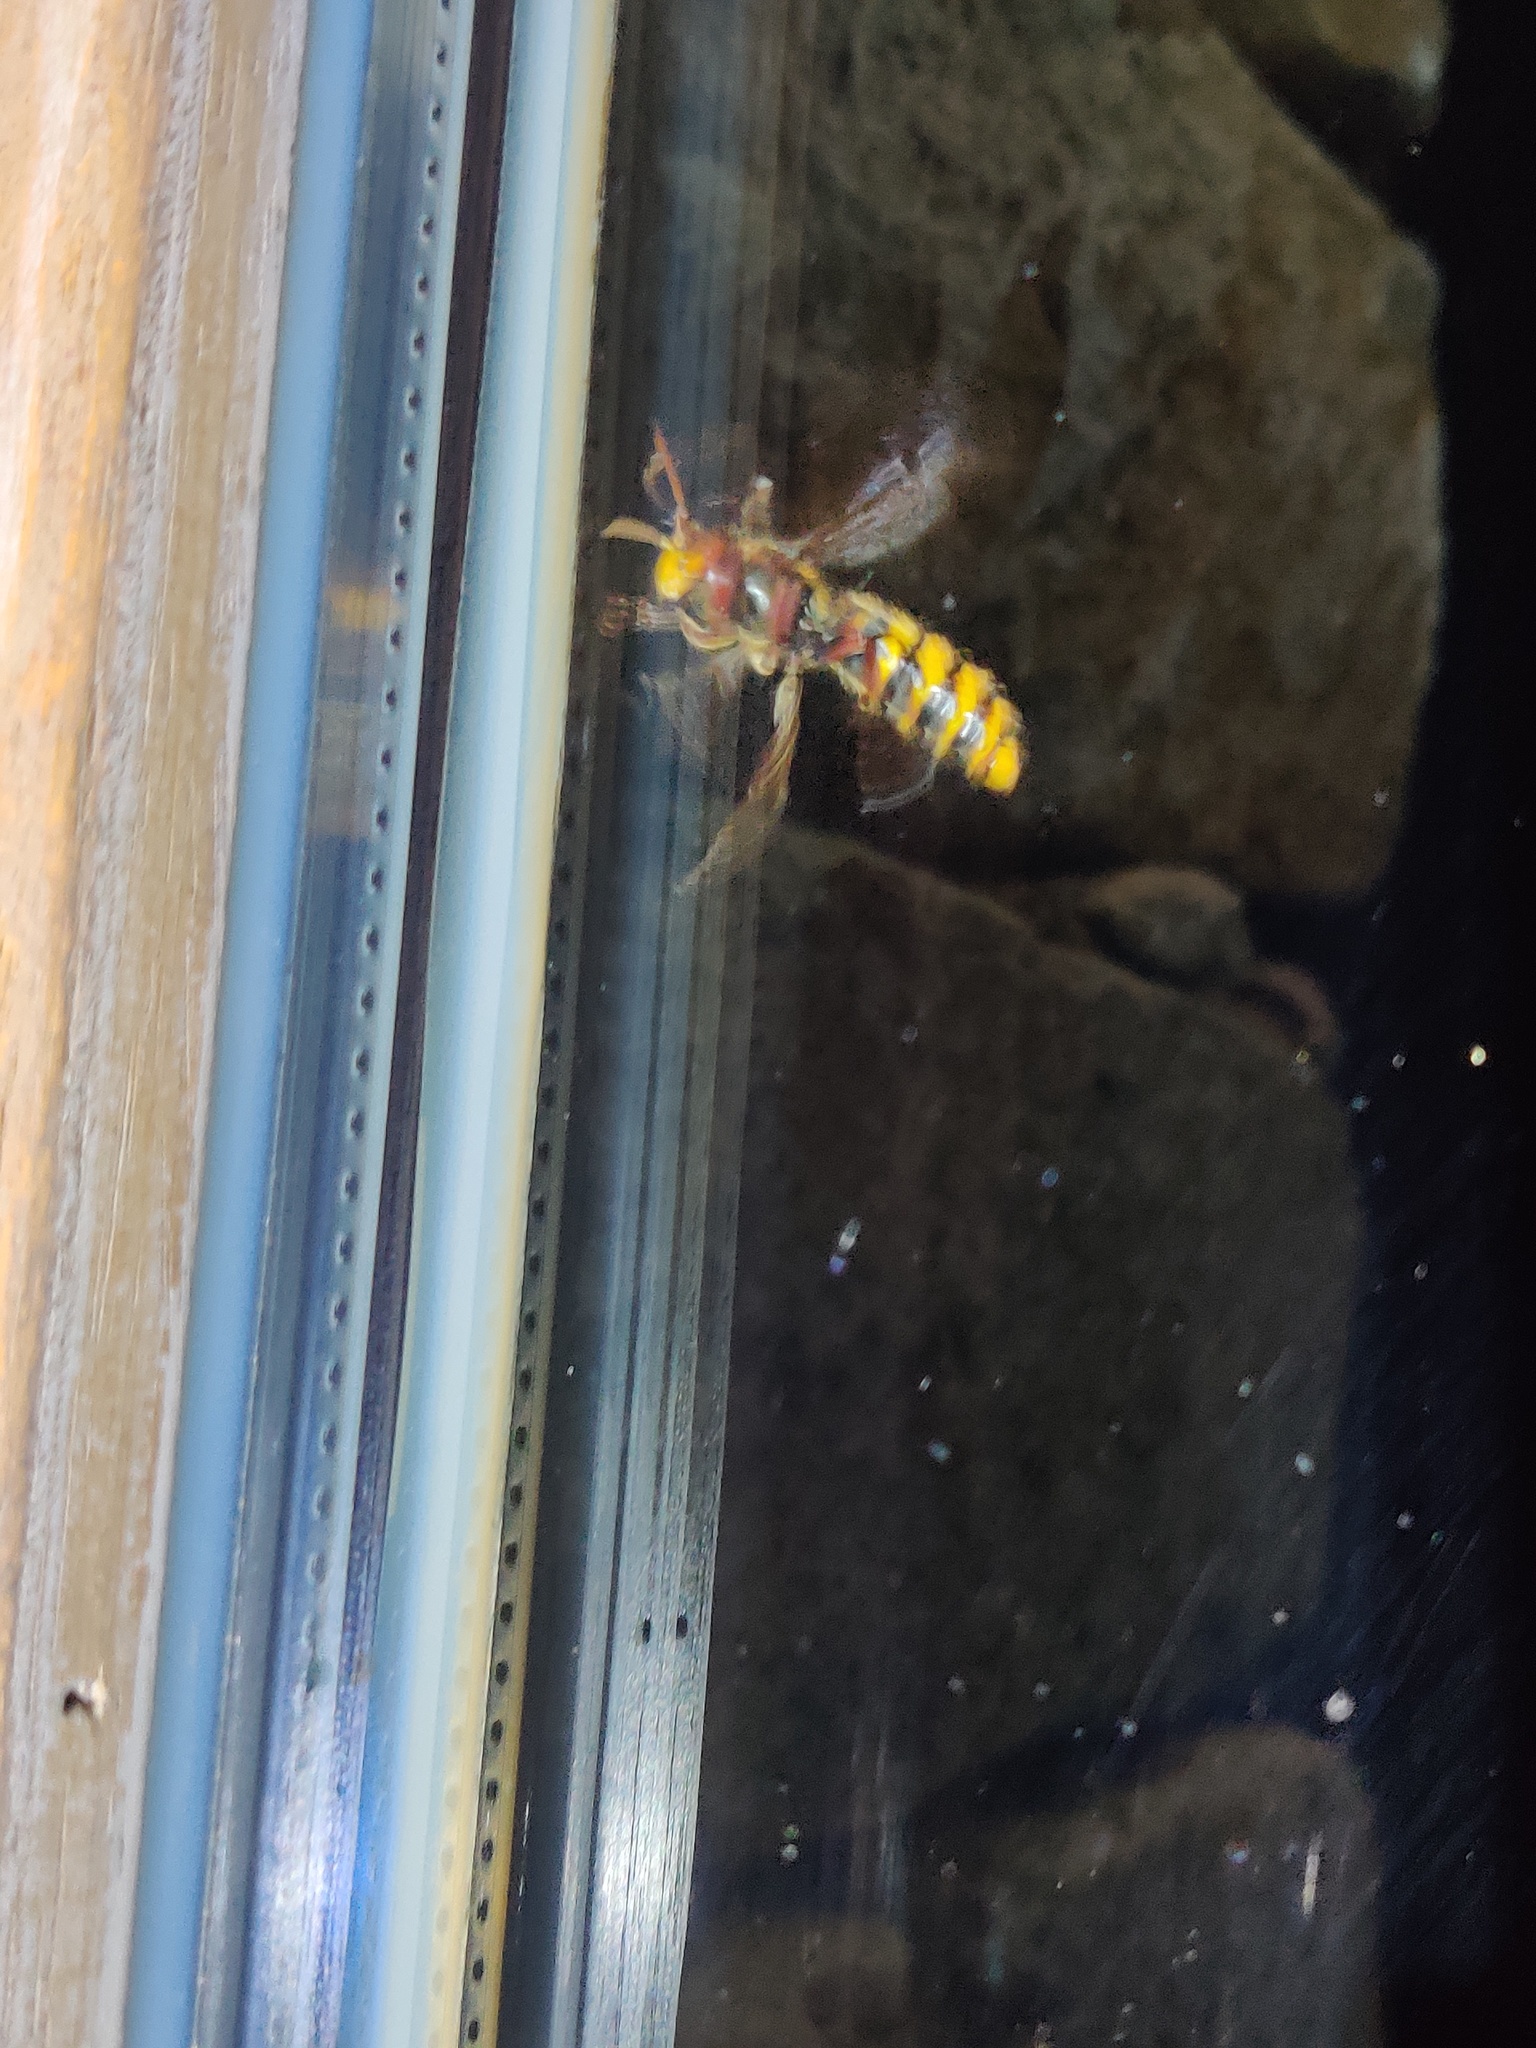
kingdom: Animalia
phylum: Arthropoda
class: Insecta
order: Hymenoptera
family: Vespidae
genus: Vespa
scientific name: Vespa crabro
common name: Hornet
